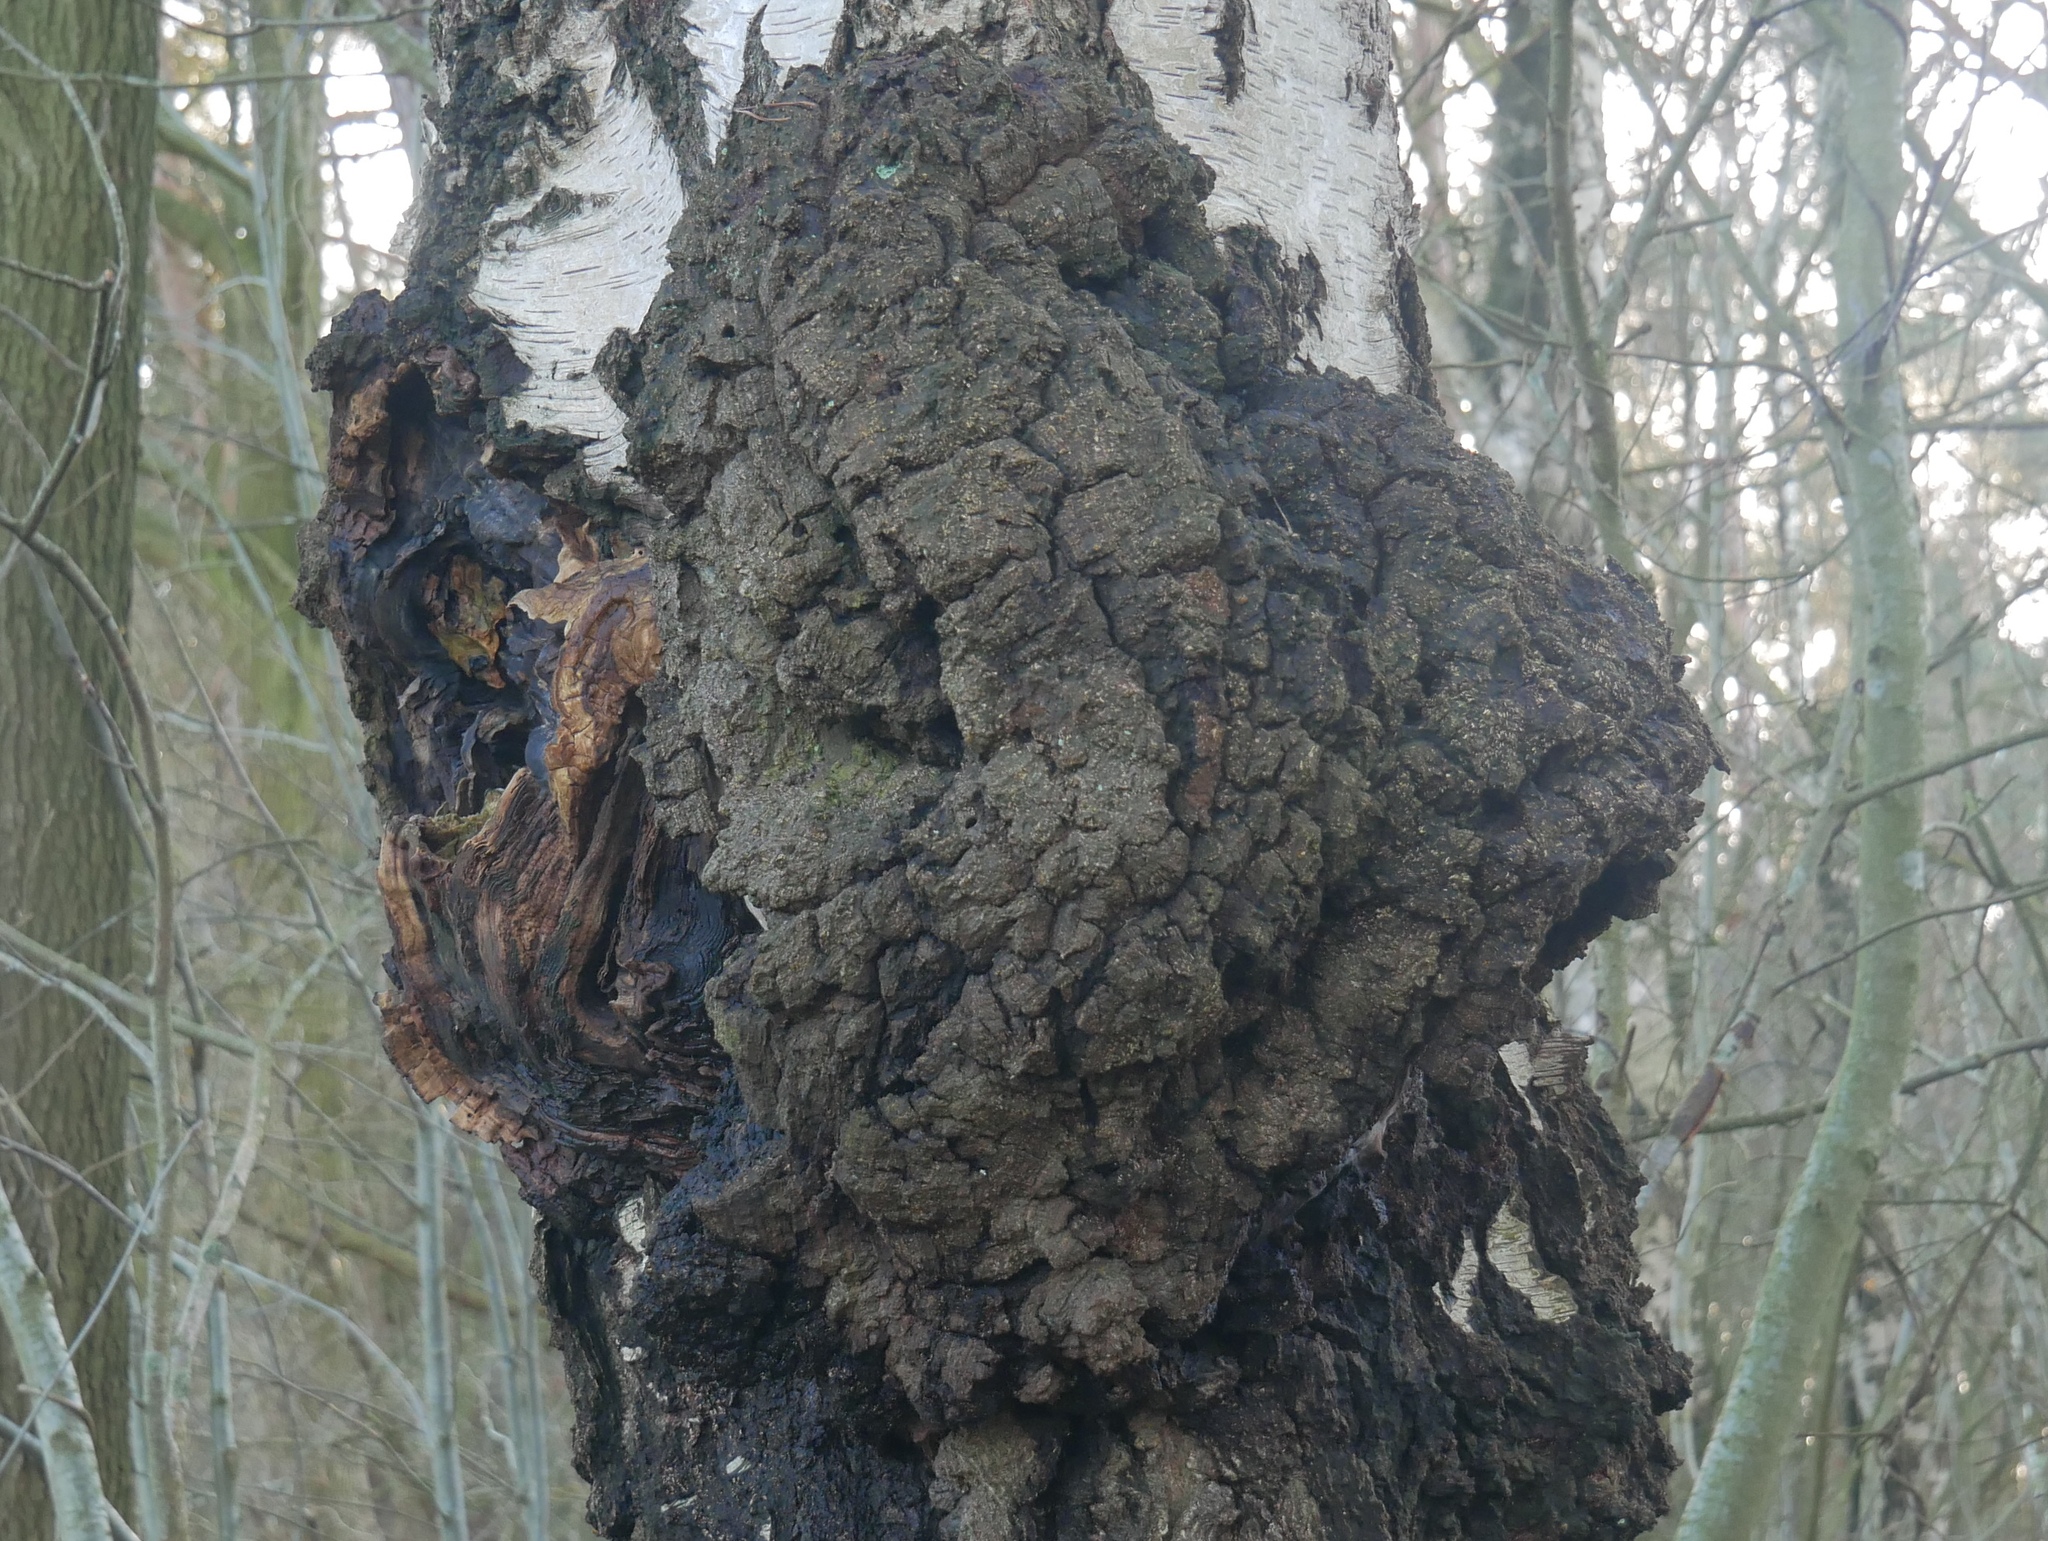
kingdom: Bacteria
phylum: Proteobacteria
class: Alphaproteobacteria
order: Rhizobiales
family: Rhizobiaceae
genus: Rhizobium
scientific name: Rhizobium Agrobacterium radiobacter
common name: Bacterial crown gall
